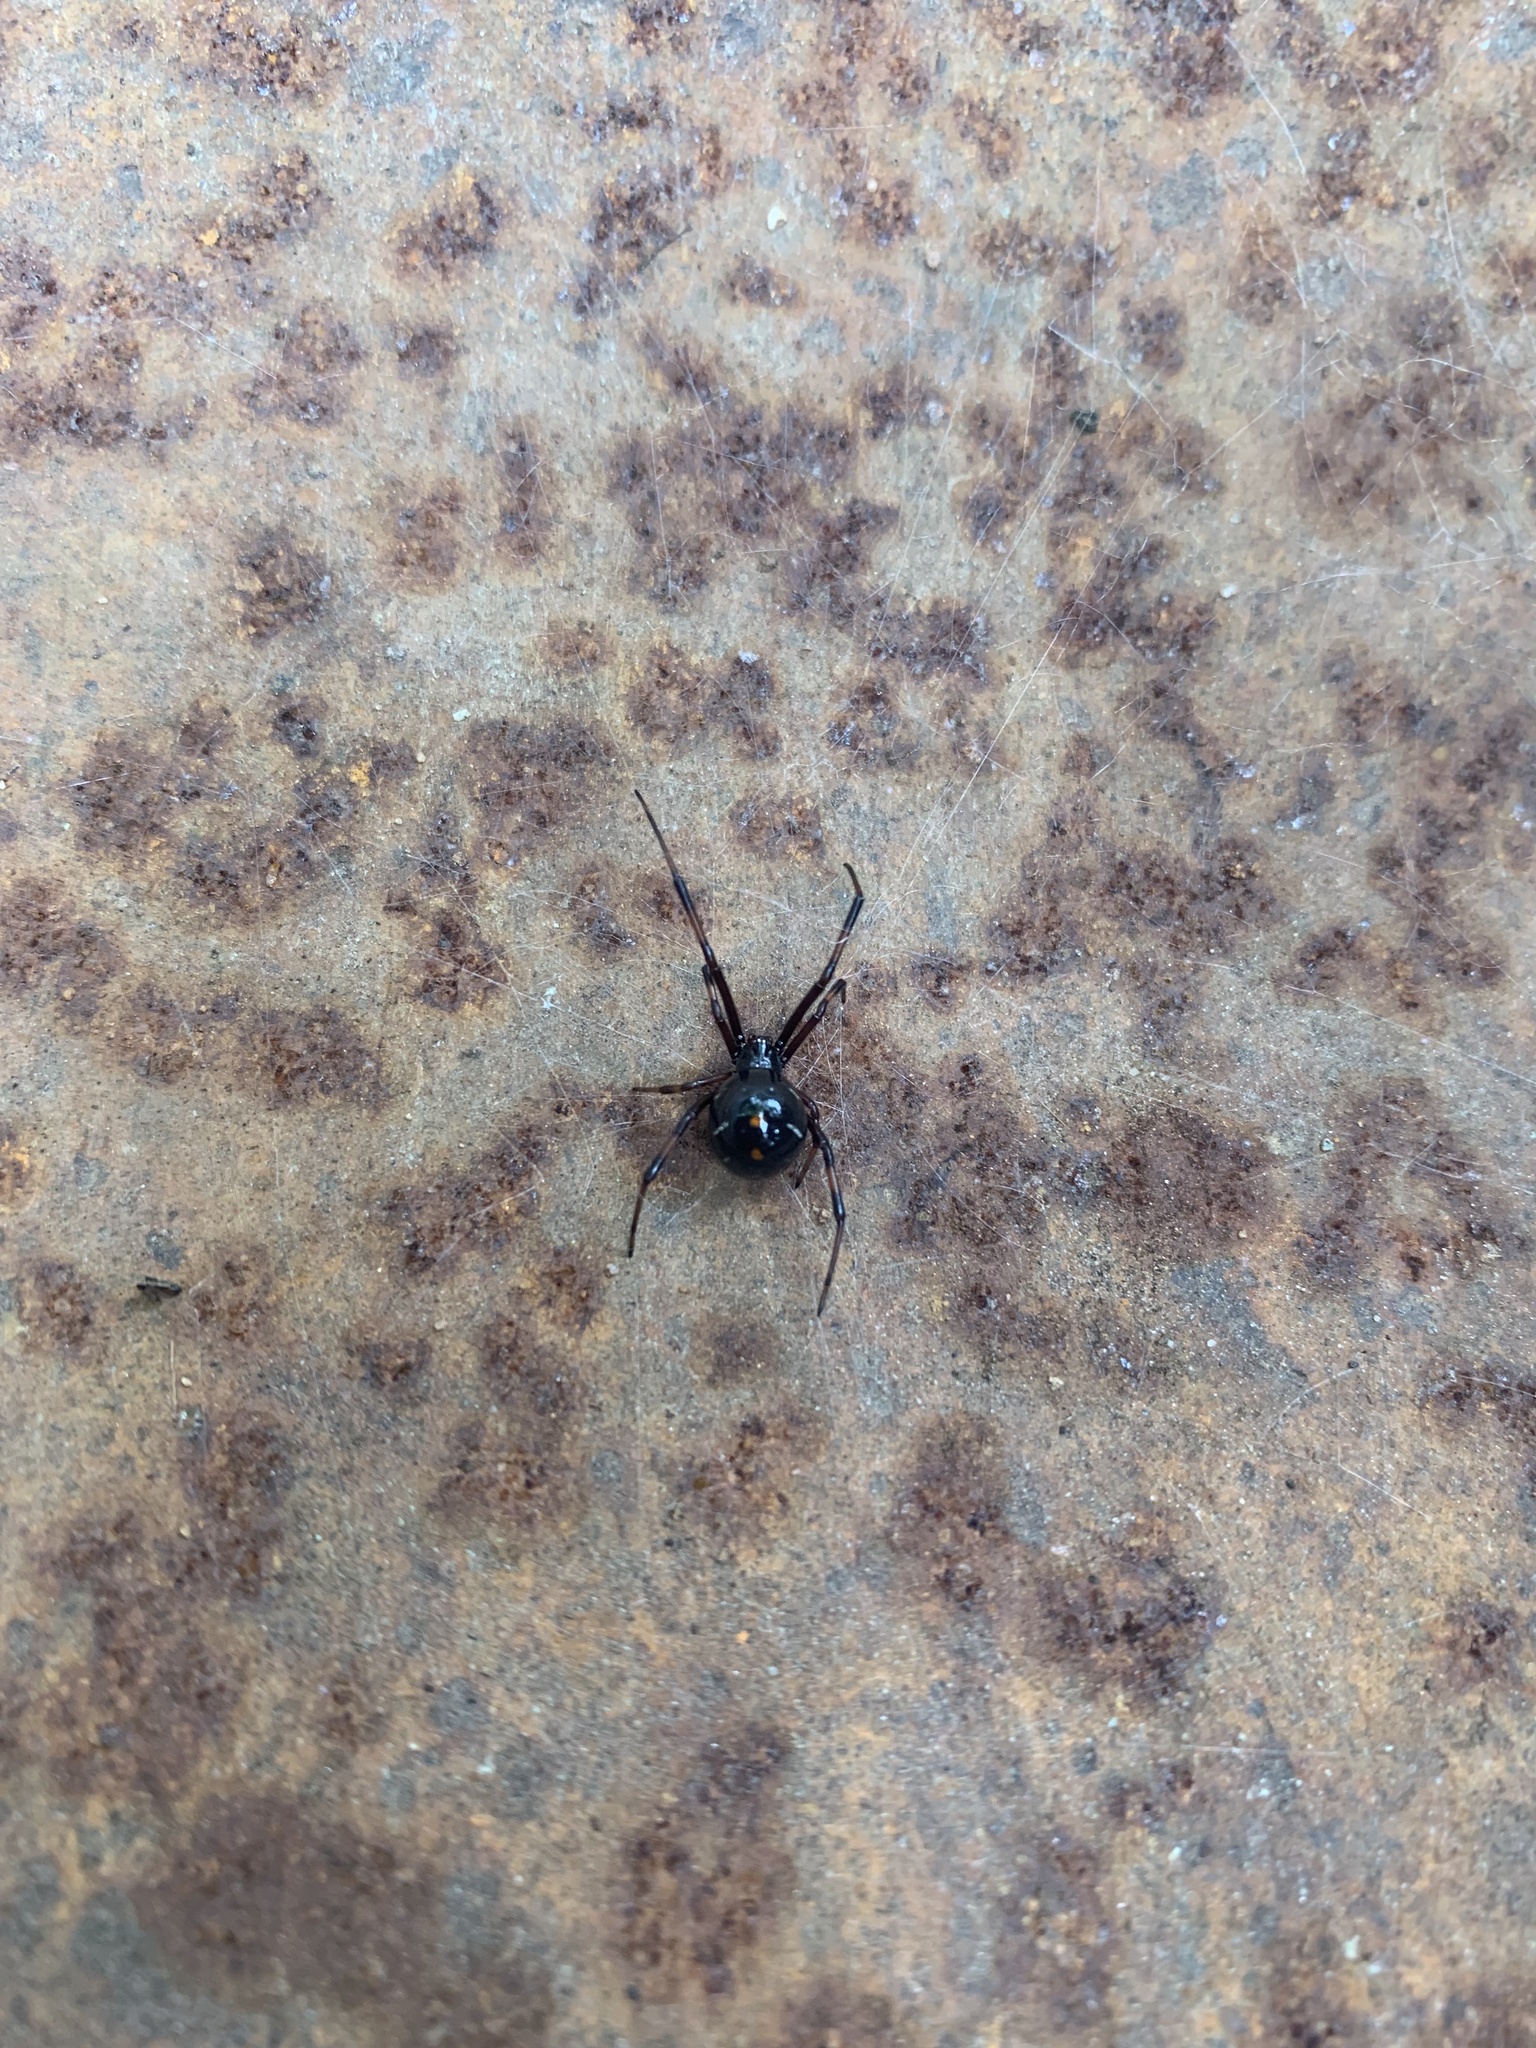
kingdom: Animalia
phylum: Arthropoda
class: Arachnida
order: Araneae
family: Theridiidae
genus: Latrodectus
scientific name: Latrodectus variolus
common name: Northern black widow
